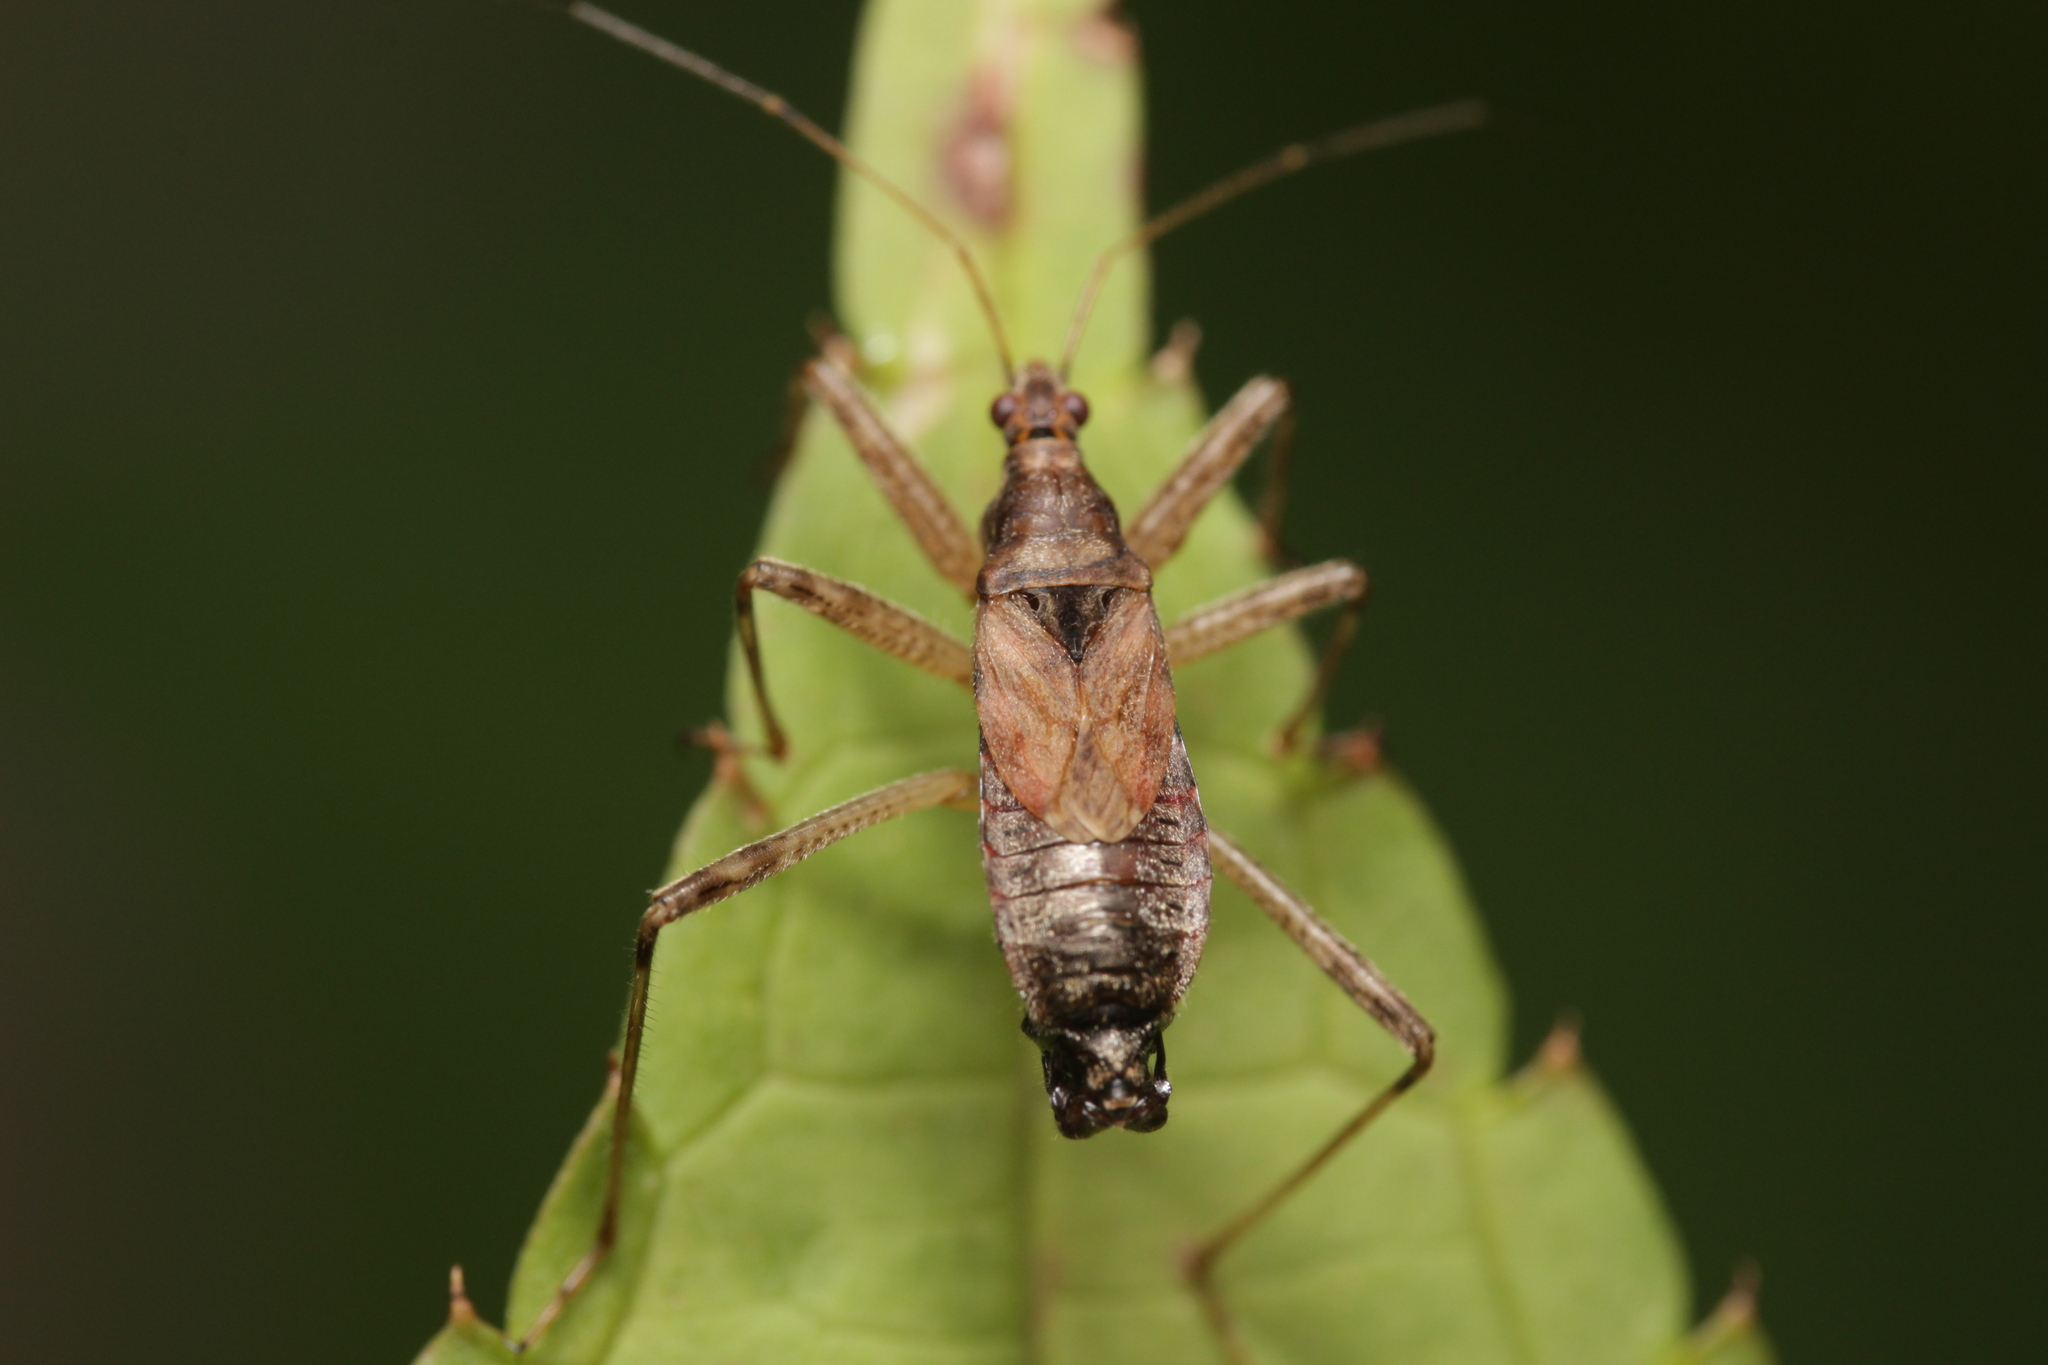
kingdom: Animalia
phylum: Arthropoda
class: Insecta
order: Hemiptera
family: Nabidae
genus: Himacerus
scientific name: Himacerus apterus
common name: Tree damsel bug
